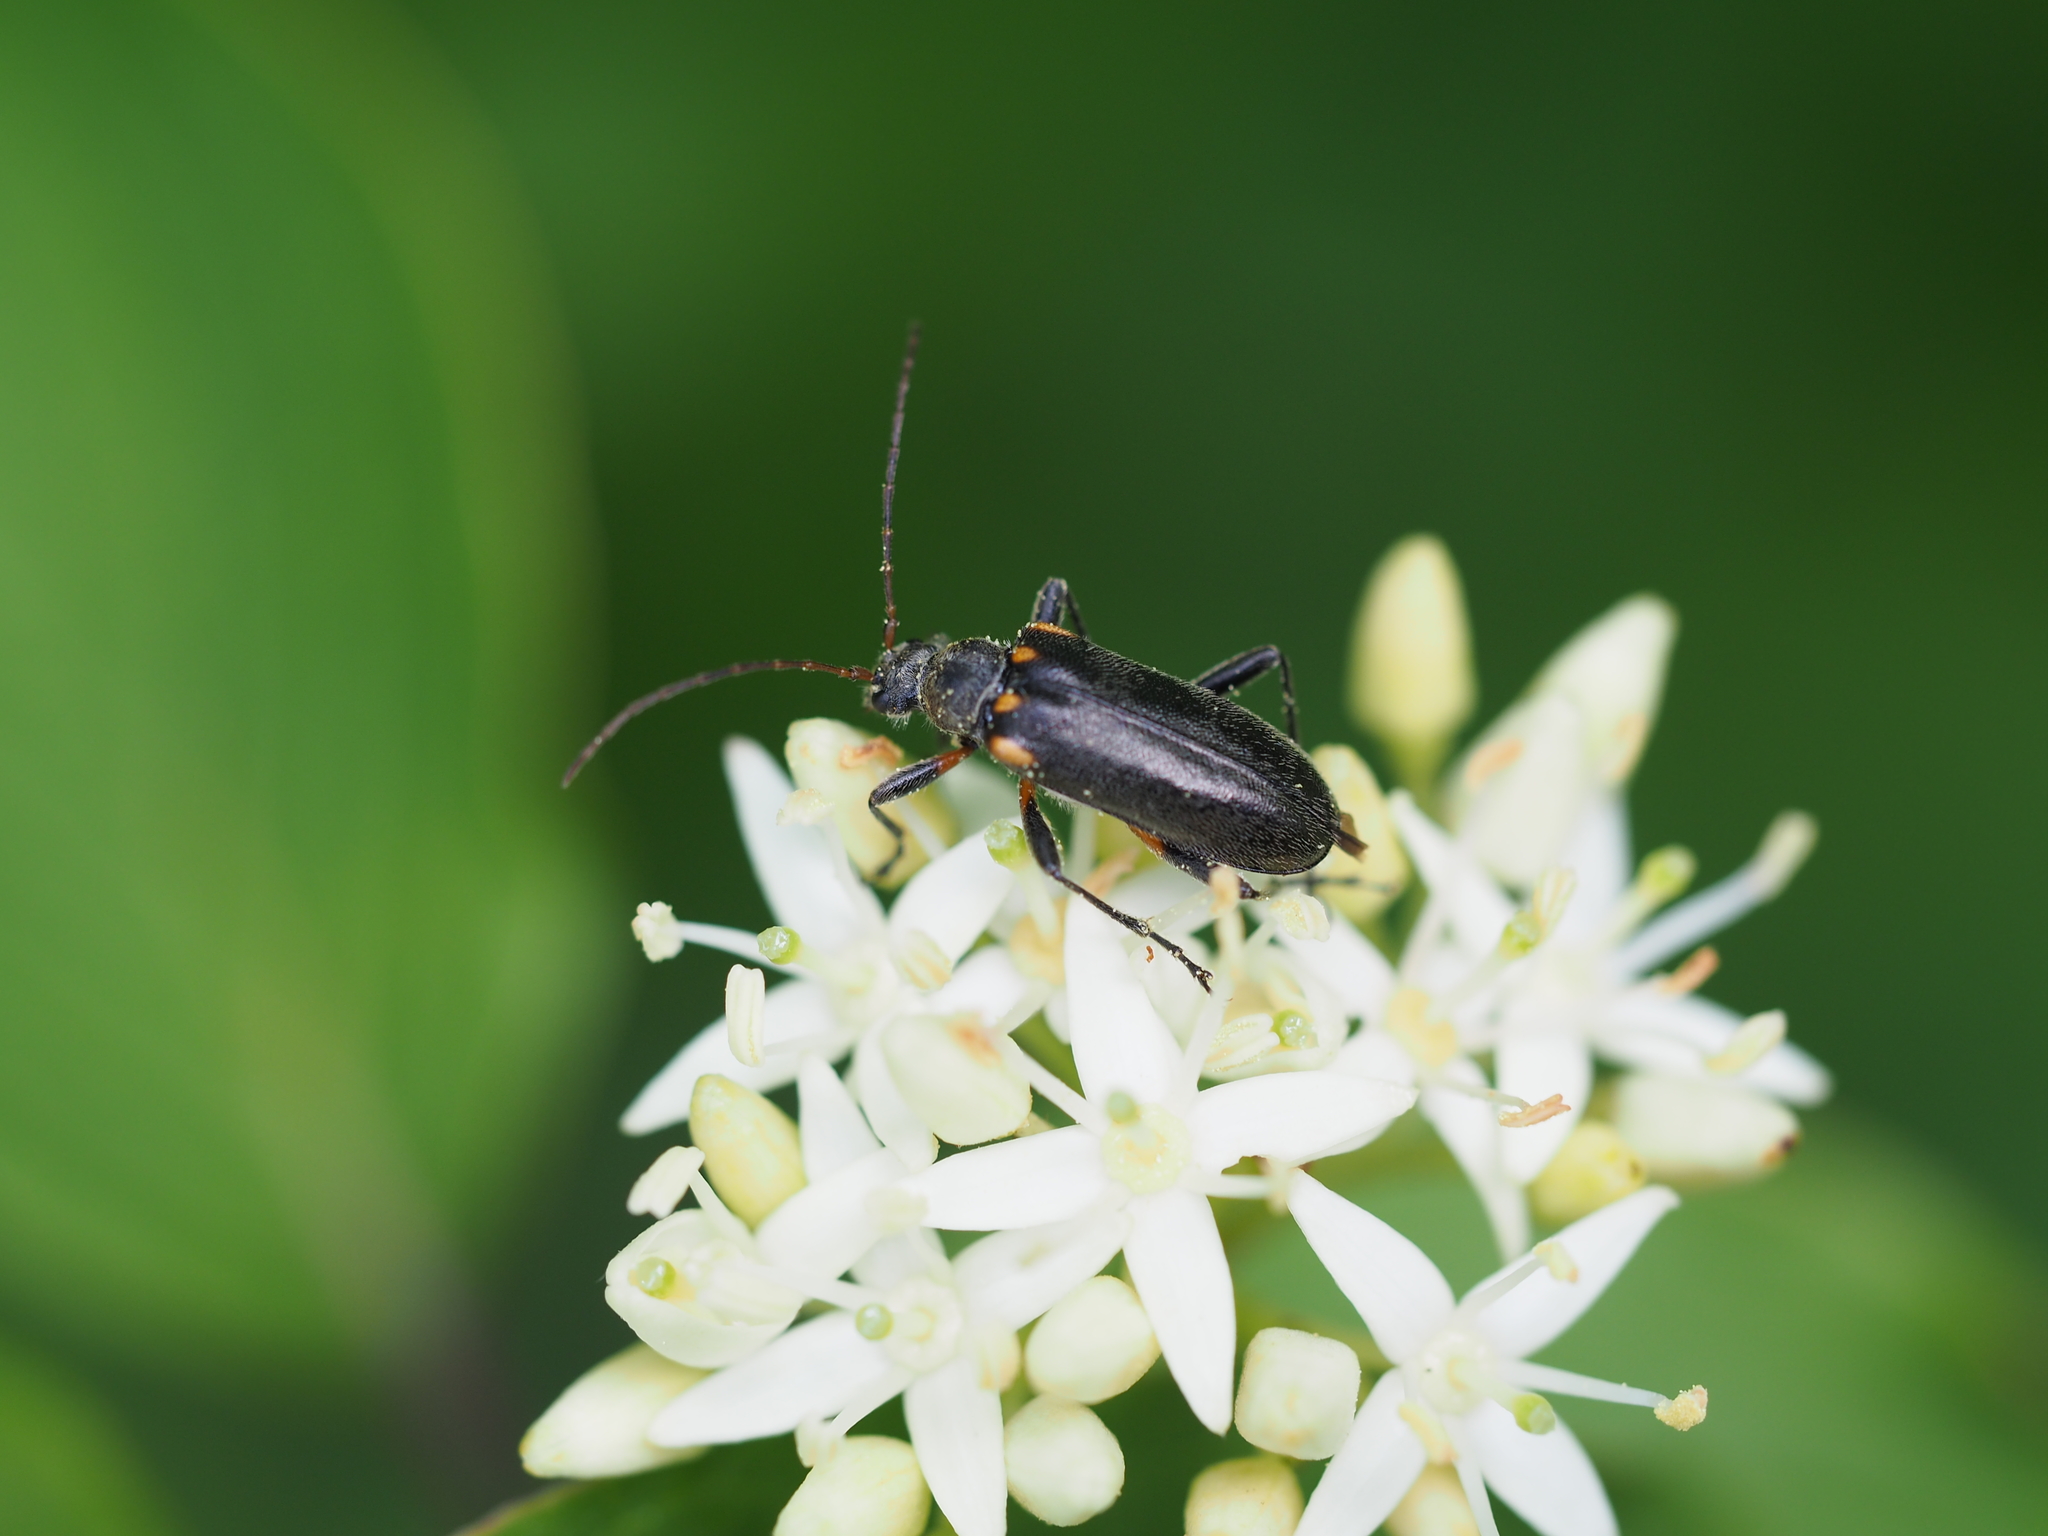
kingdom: Animalia
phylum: Arthropoda
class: Insecta
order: Coleoptera
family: Cerambycidae
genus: Cortodera
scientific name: Cortodera humeralis
